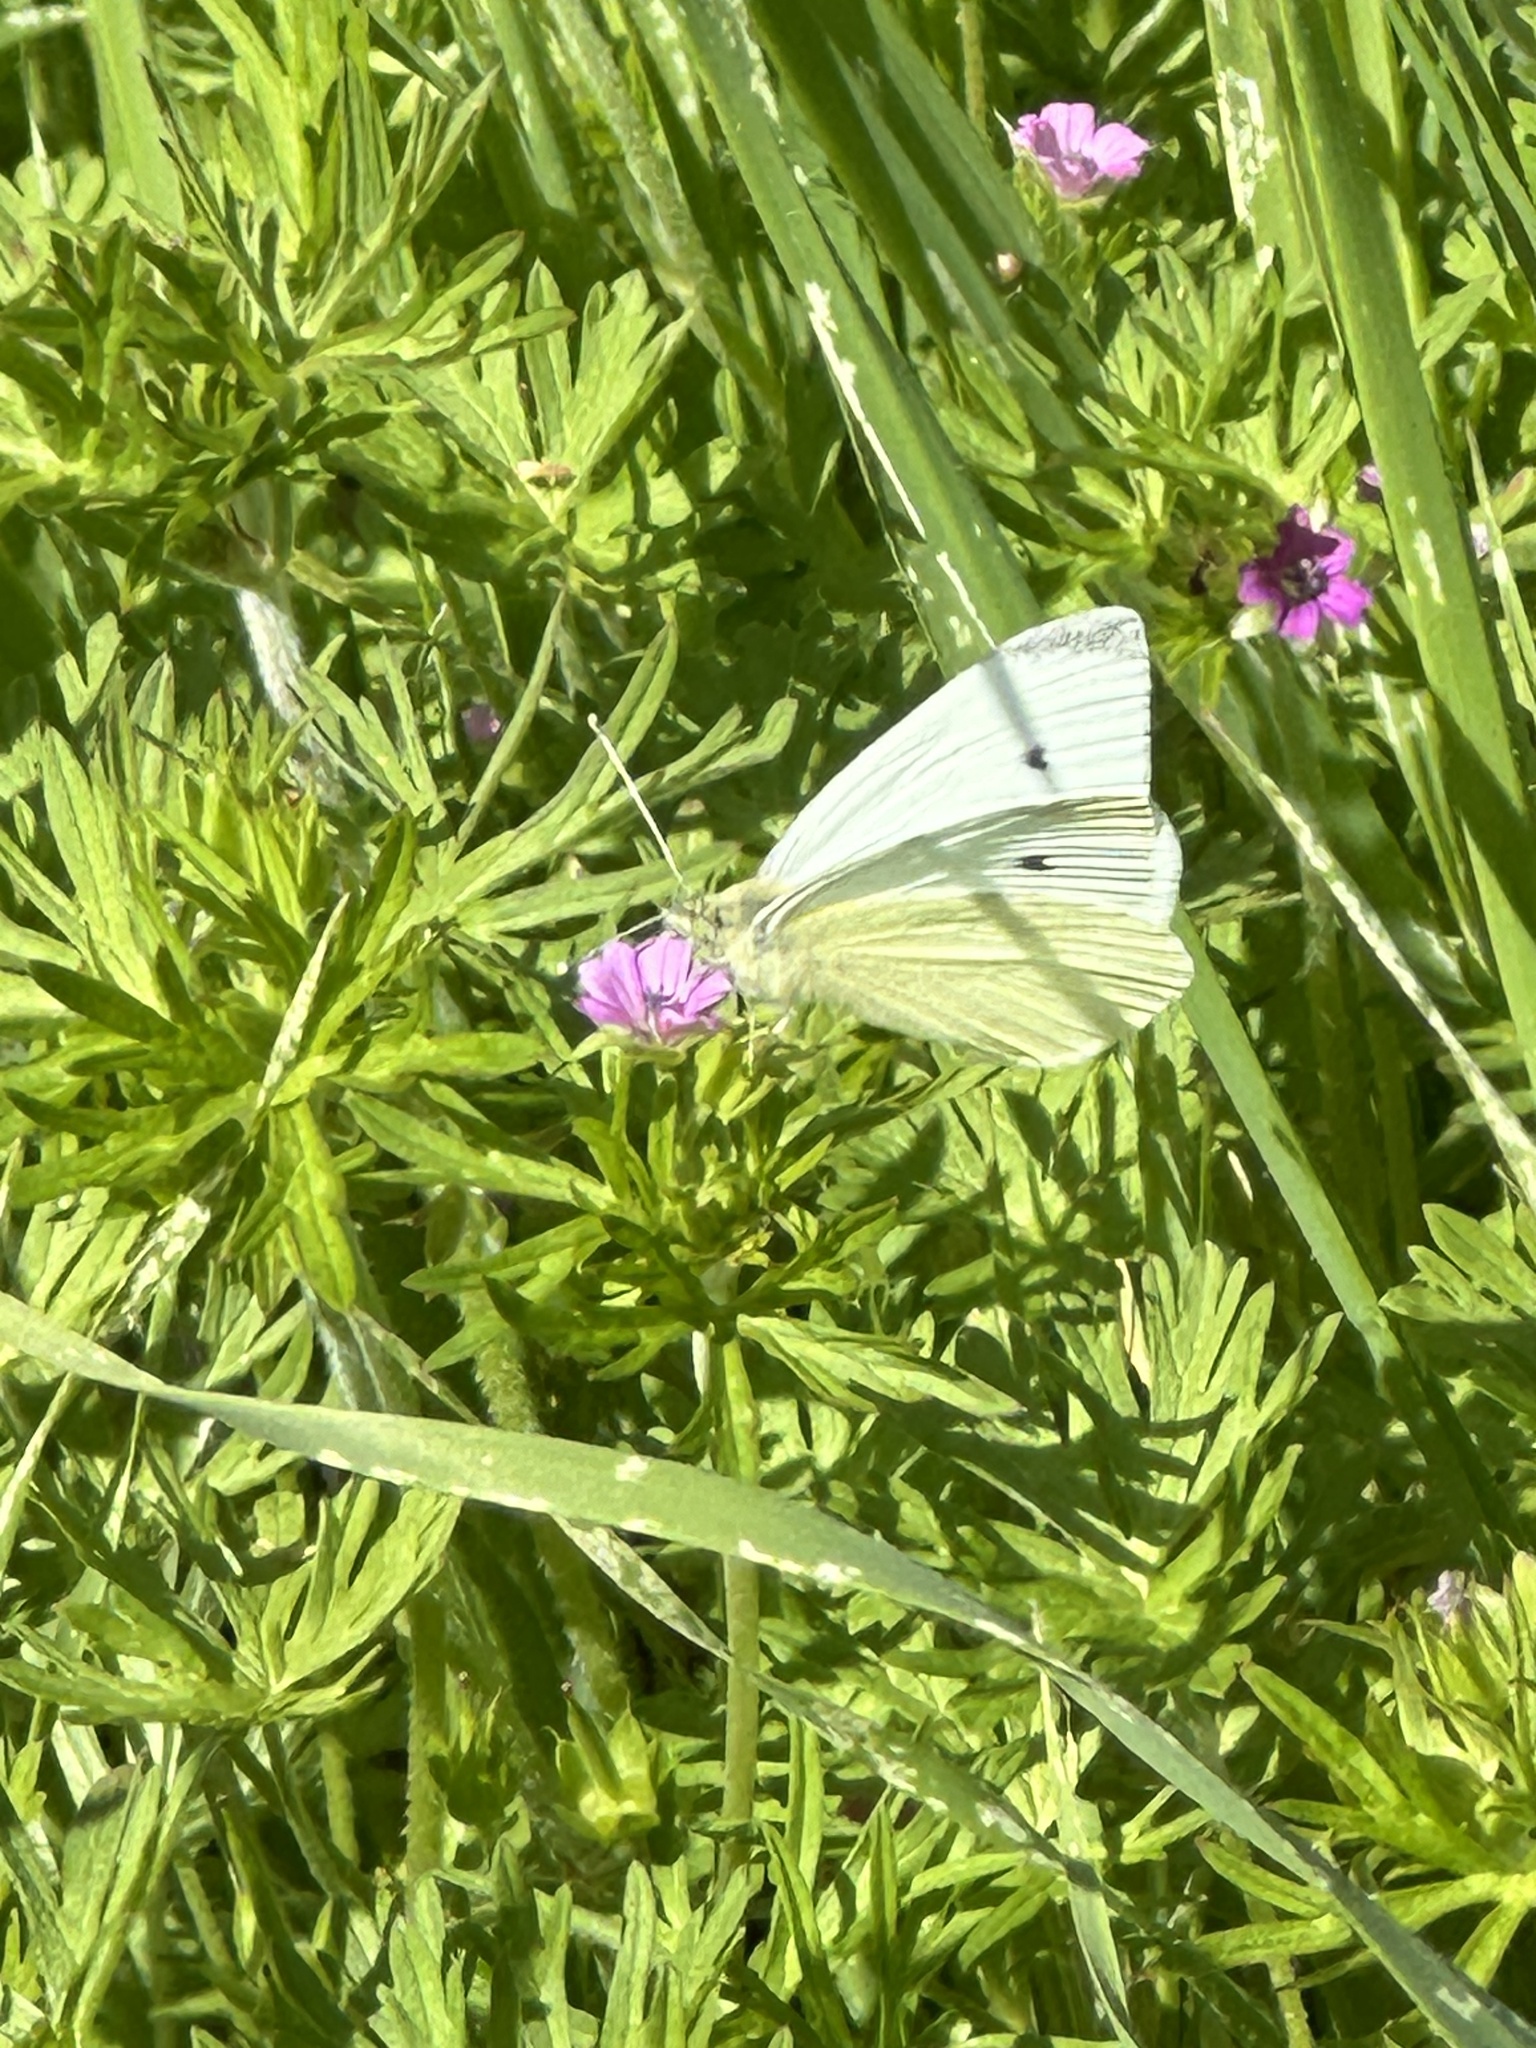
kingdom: Animalia
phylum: Arthropoda
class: Insecta
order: Lepidoptera
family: Pieridae
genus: Pieris
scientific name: Pieris rapae
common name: Small white
